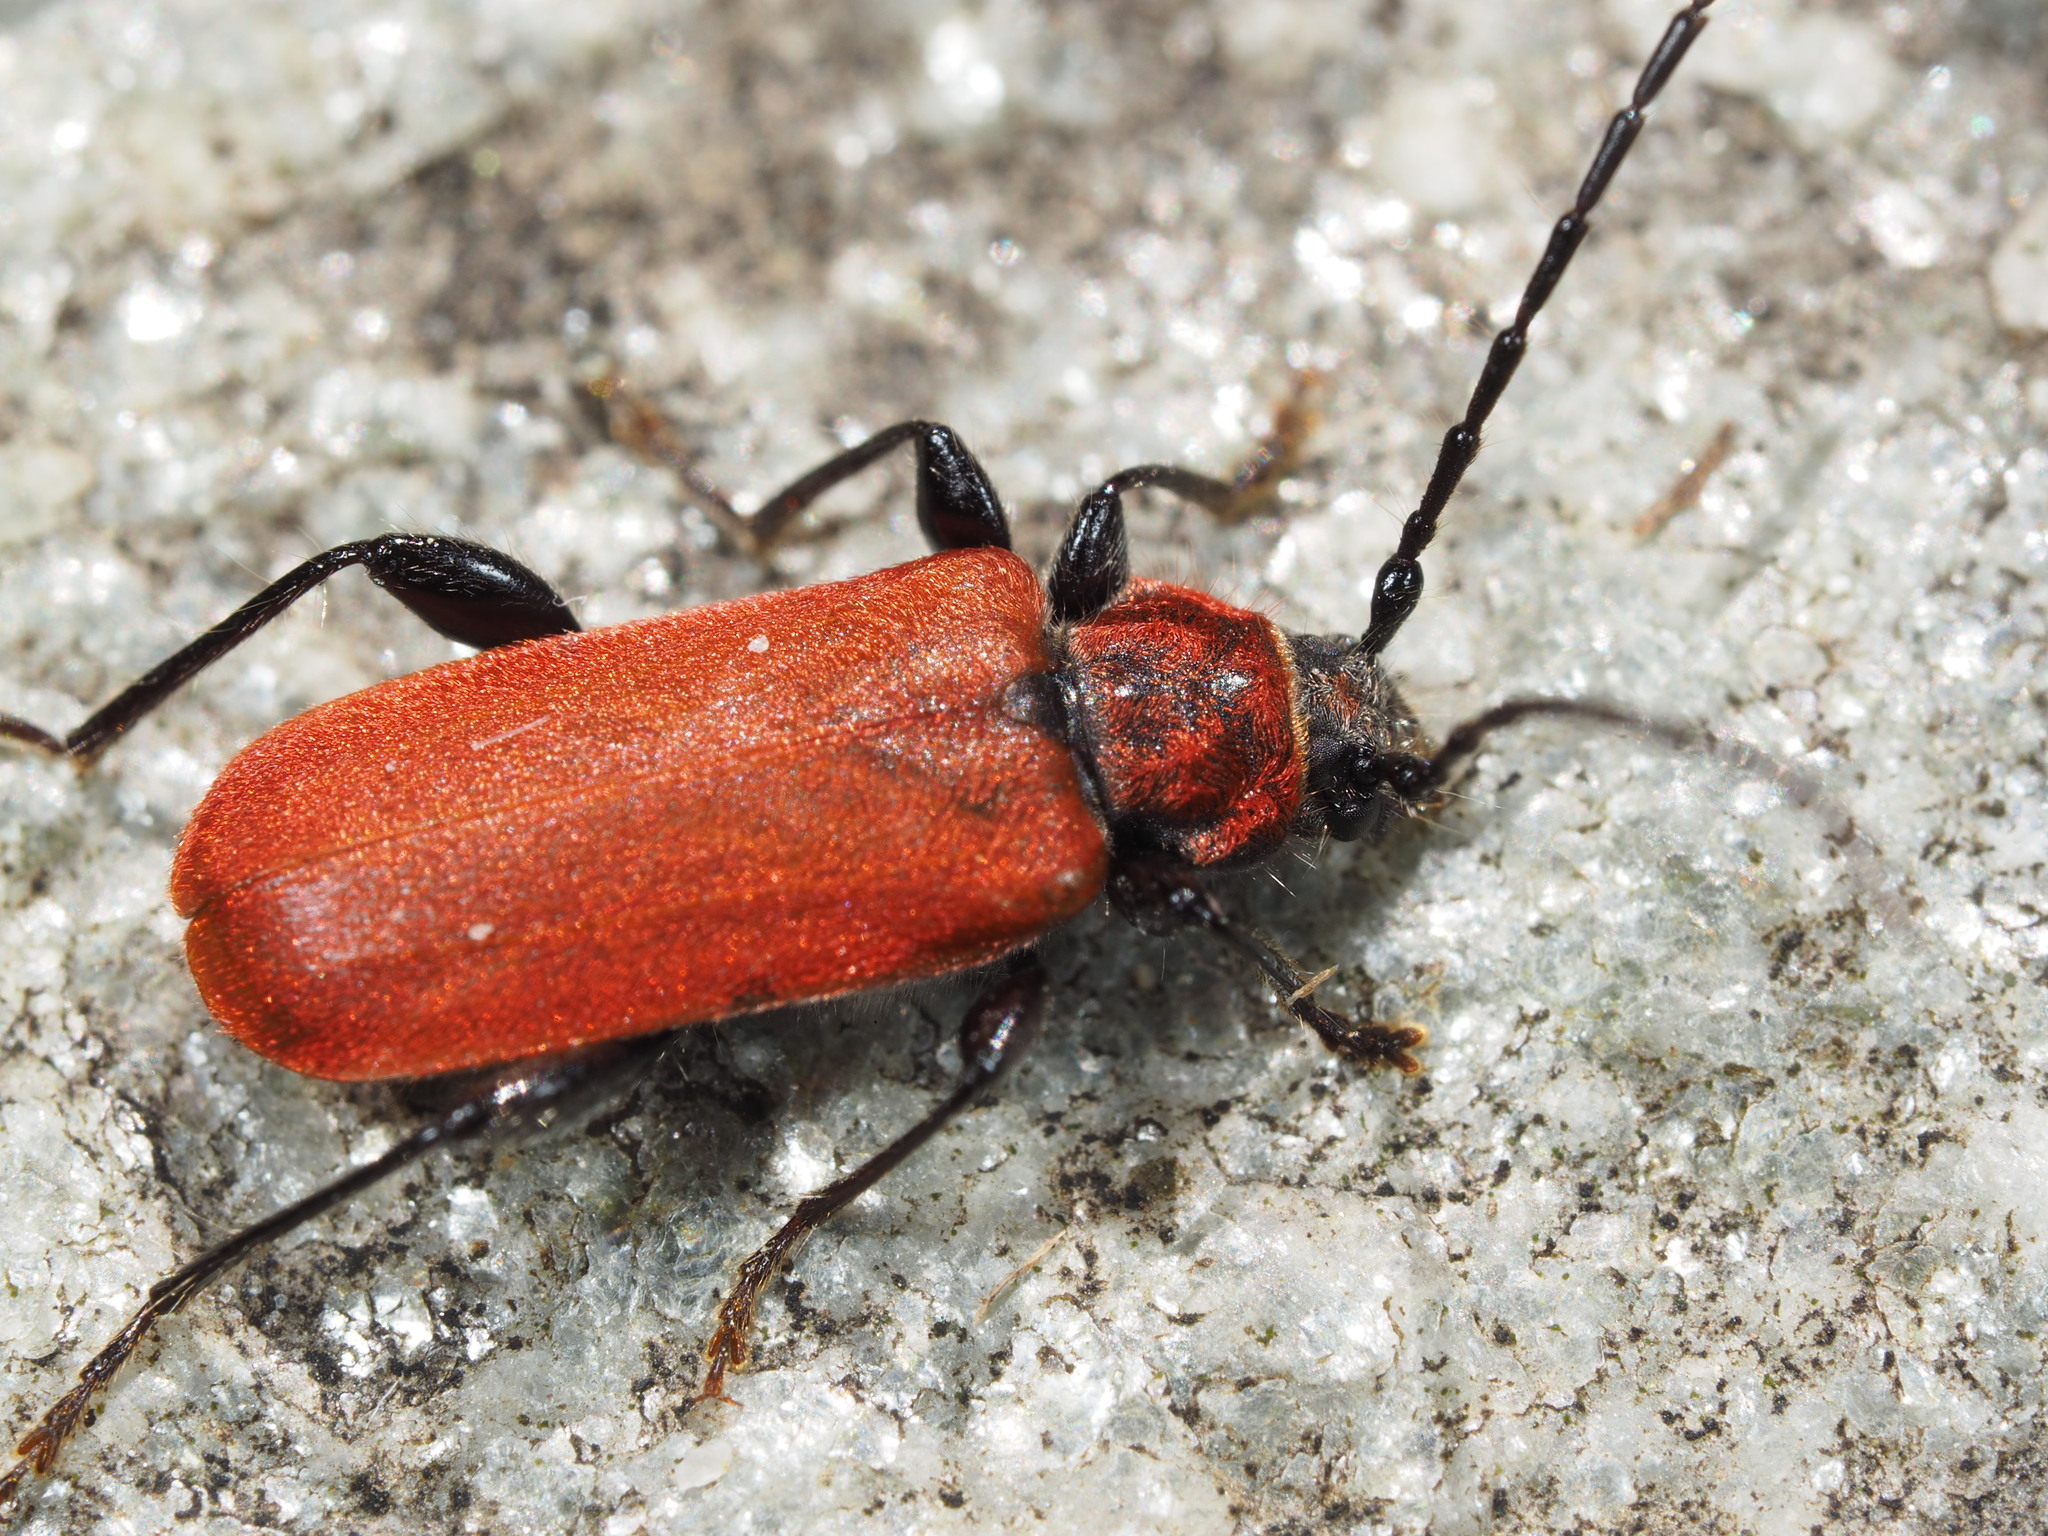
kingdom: Animalia
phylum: Arthropoda
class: Insecta
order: Coleoptera
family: Cerambycidae
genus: Pyrrhidium
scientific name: Pyrrhidium sanguineum
